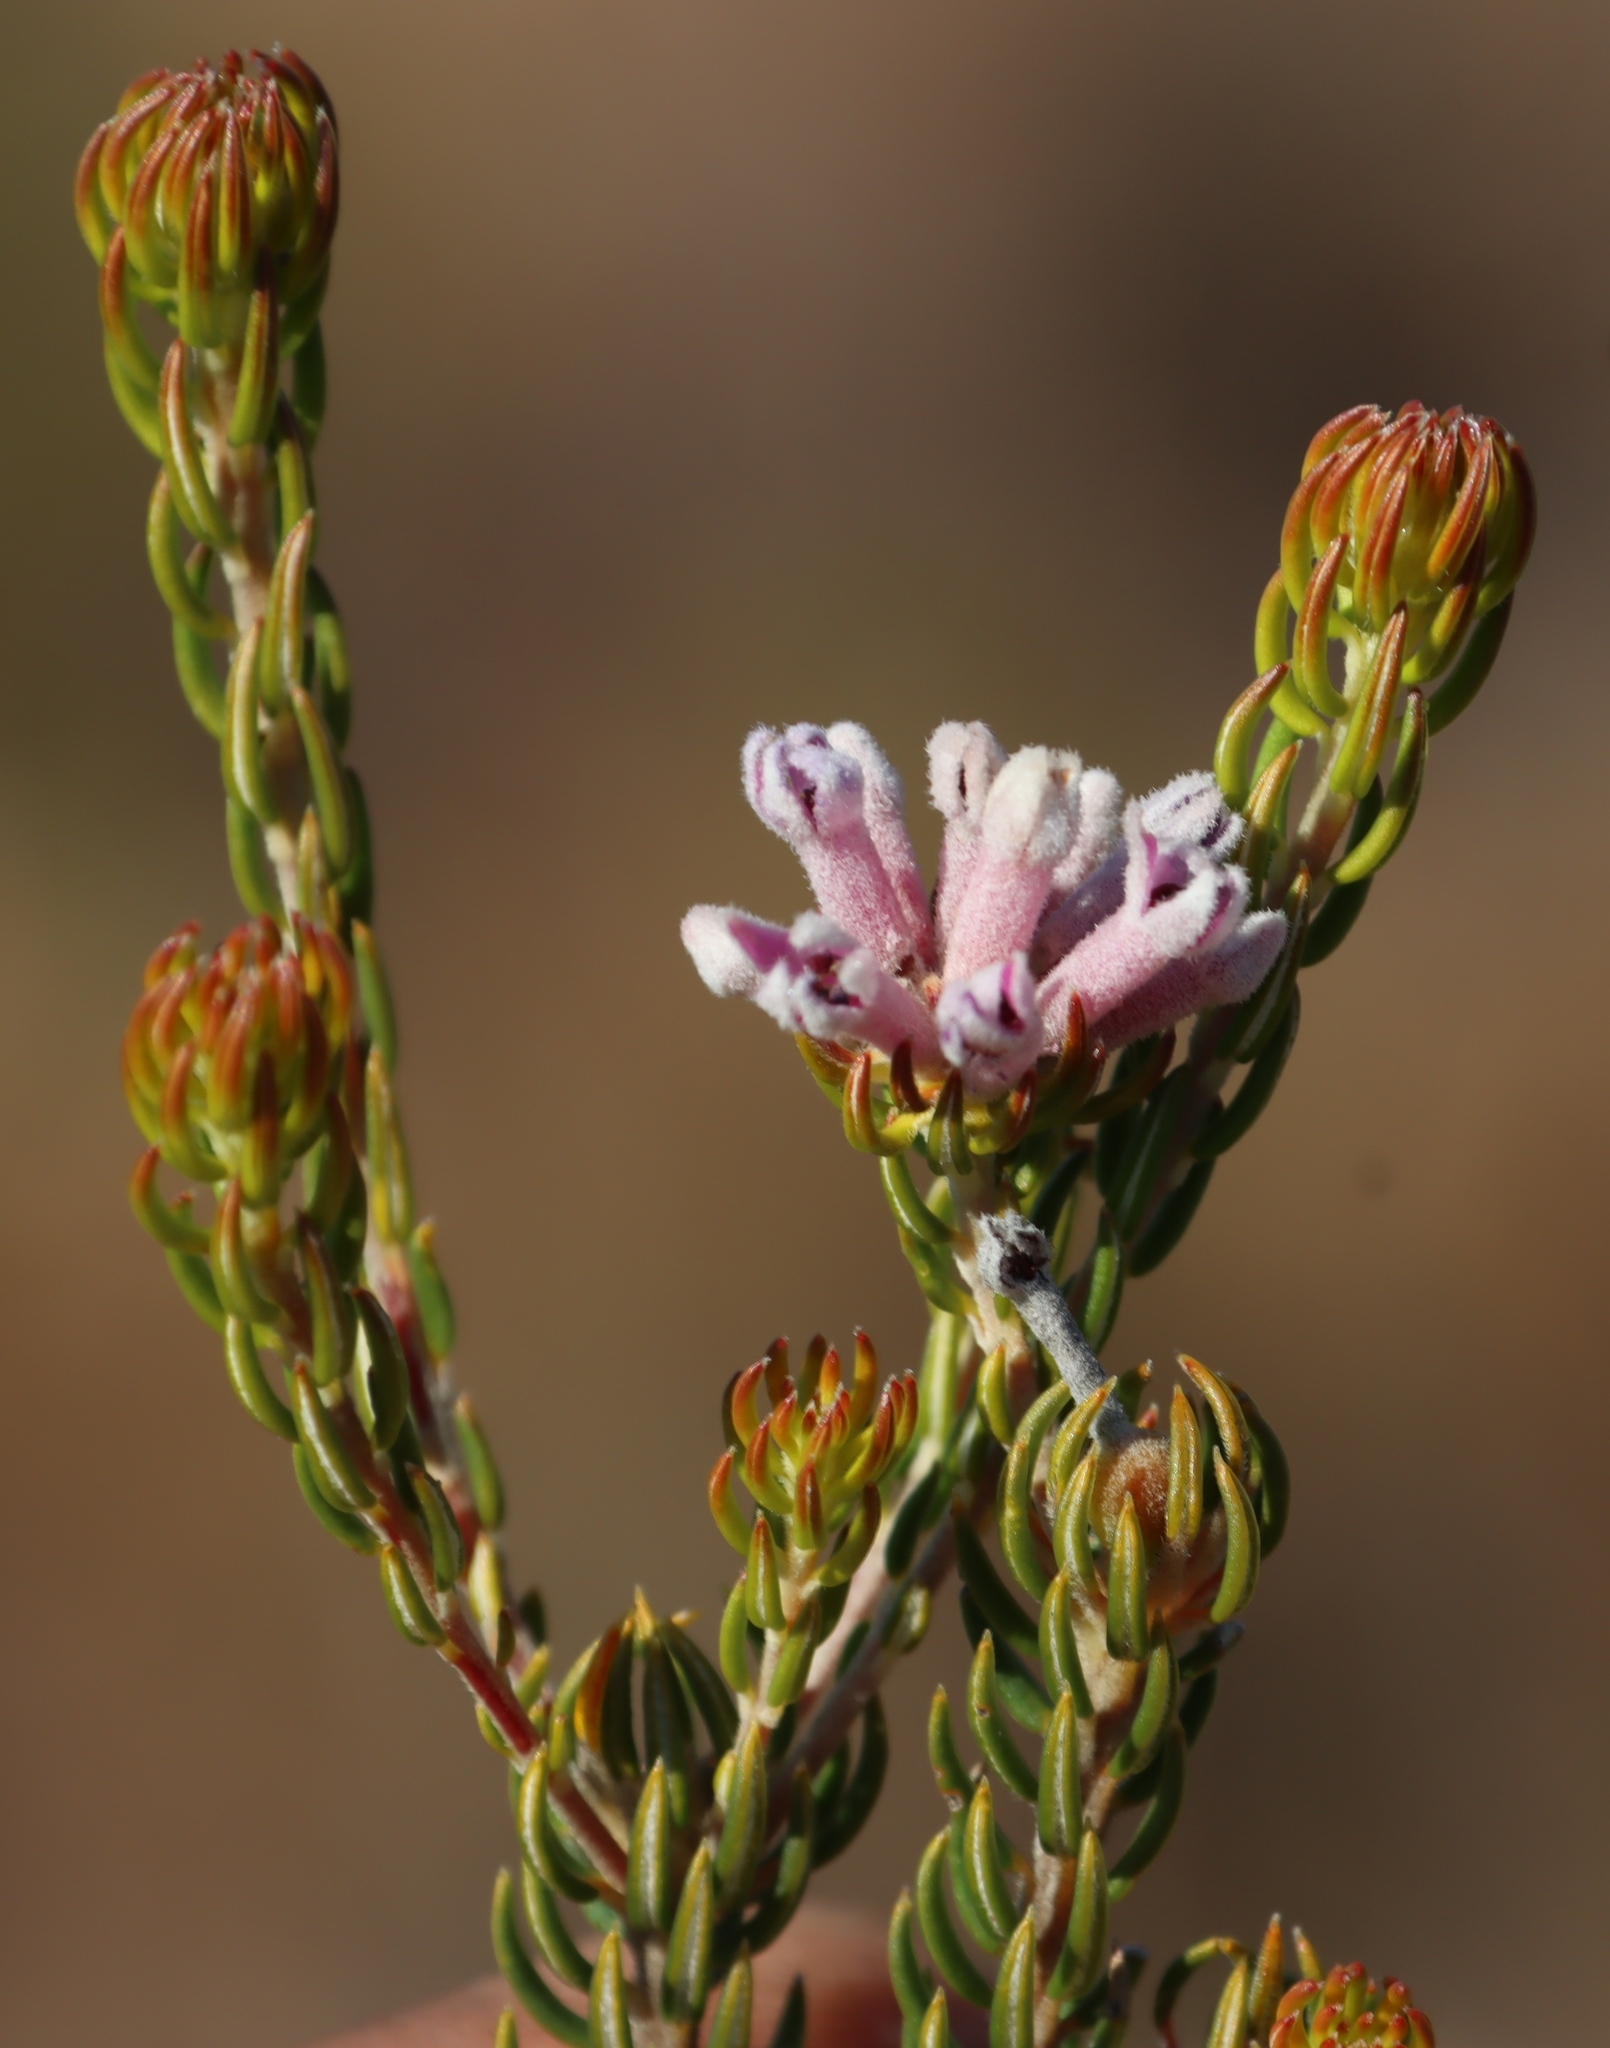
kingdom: Plantae
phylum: Tracheophyta
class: Magnoliopsida
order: Rosales
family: Rhamnaceae
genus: Phylica
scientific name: Phylica lachneaeoides
